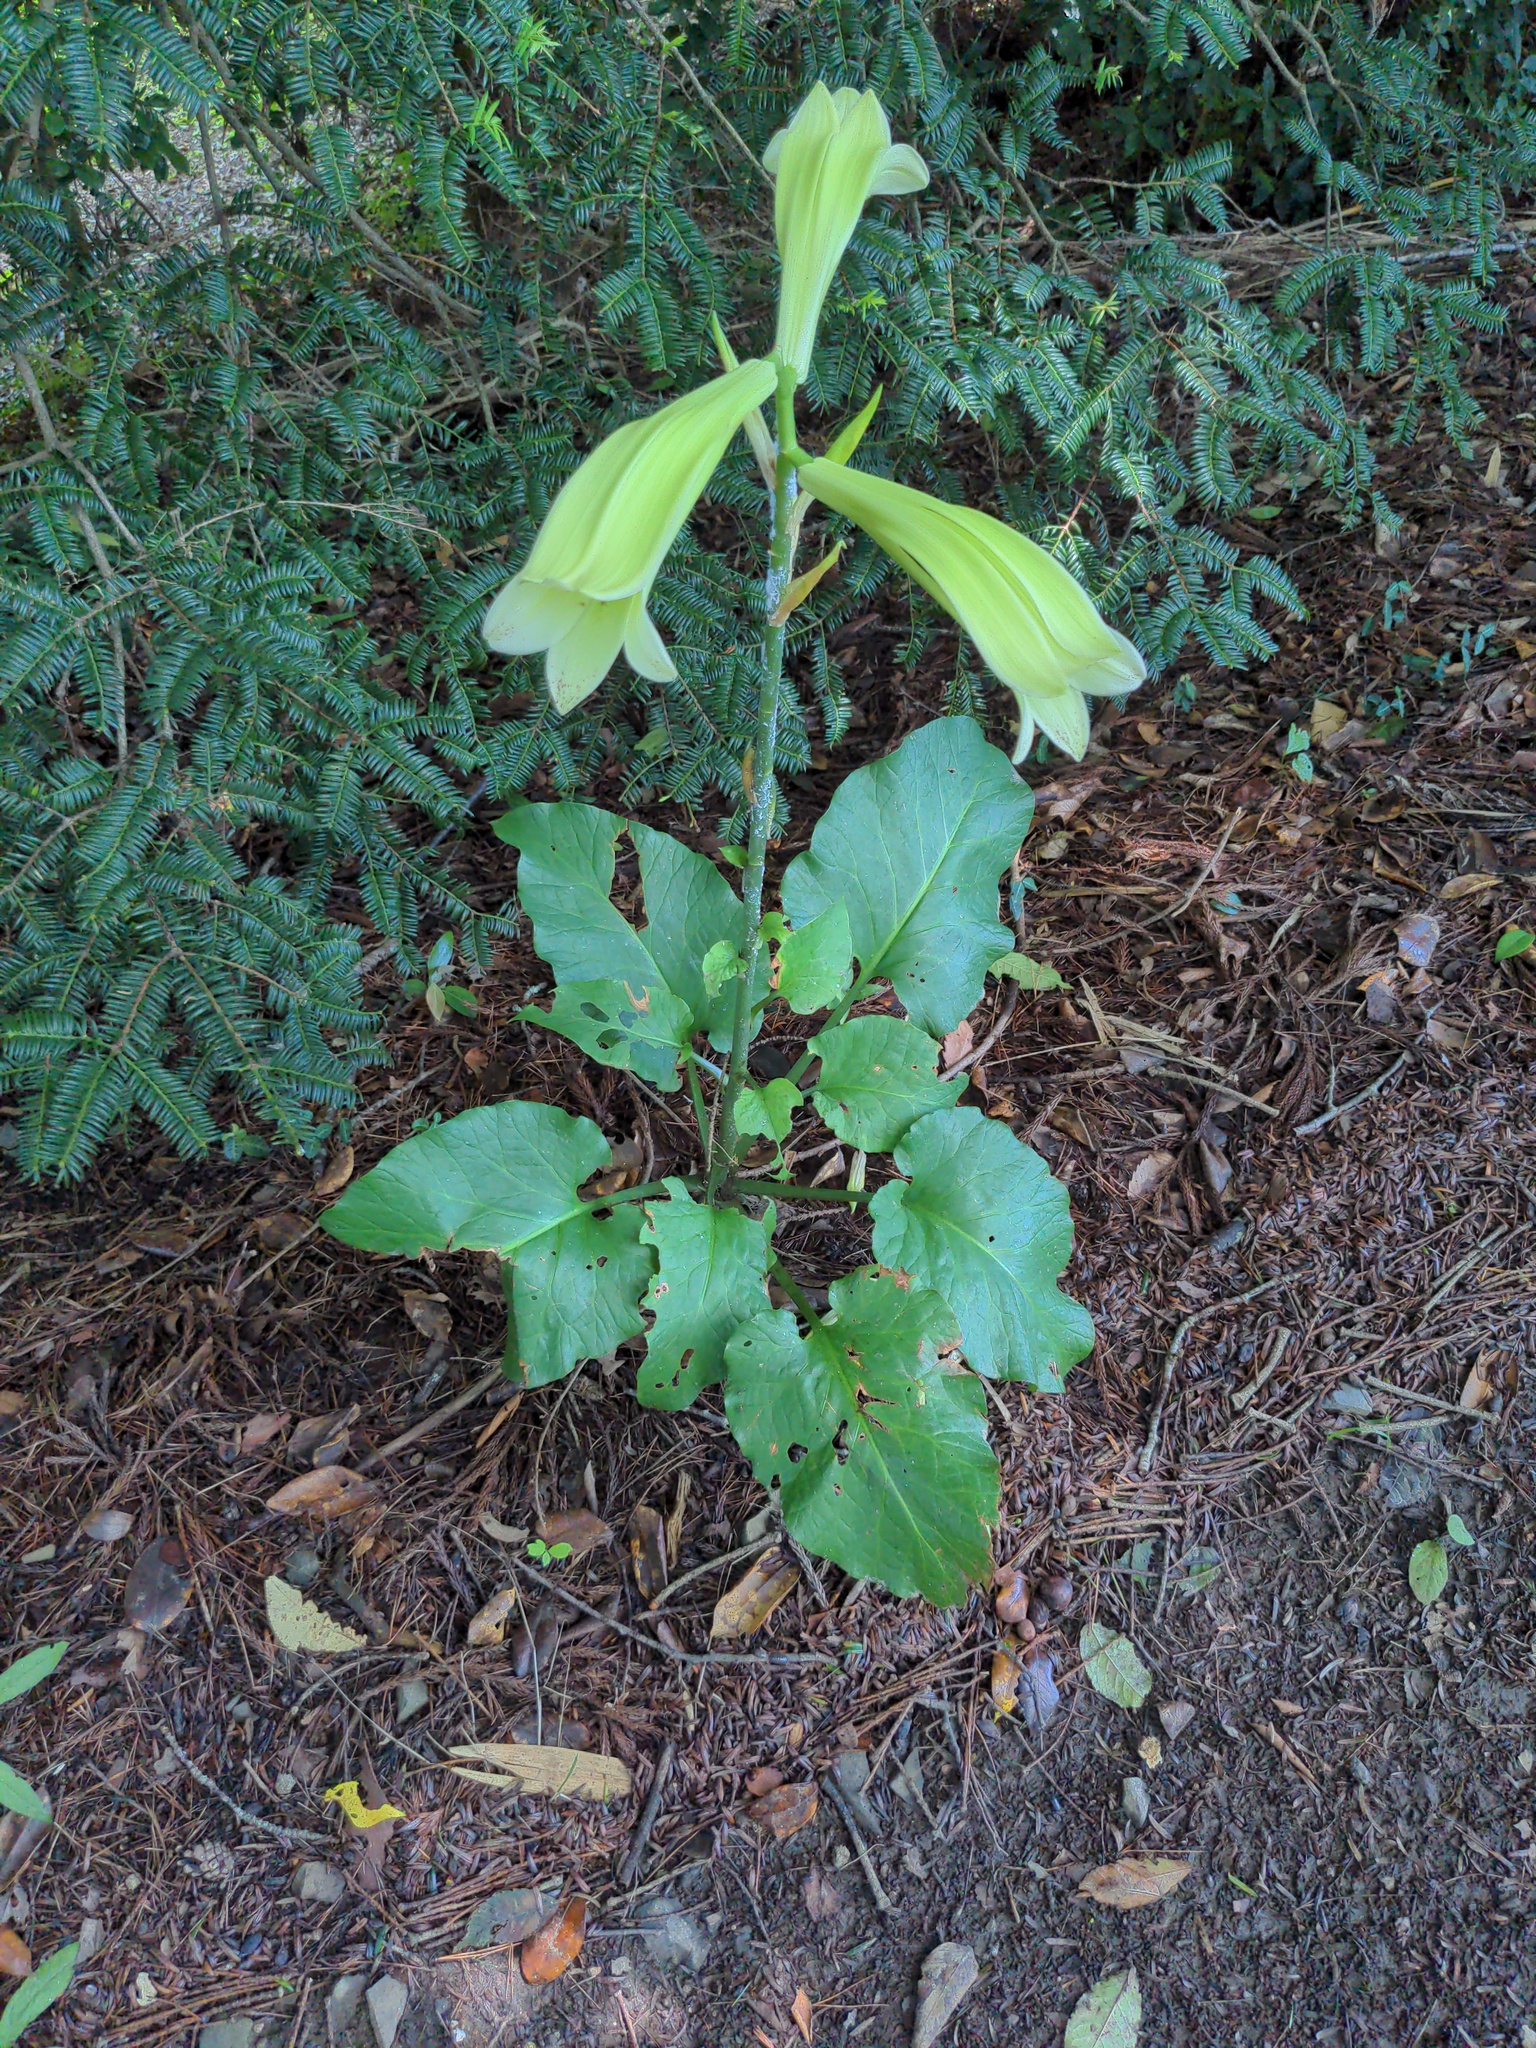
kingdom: Plantae
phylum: Tracheophyta
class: Liliopsida
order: Liliales
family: Liliaceae
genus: Cardiocrinum
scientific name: Cardiocrinum cordatum
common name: Lily
